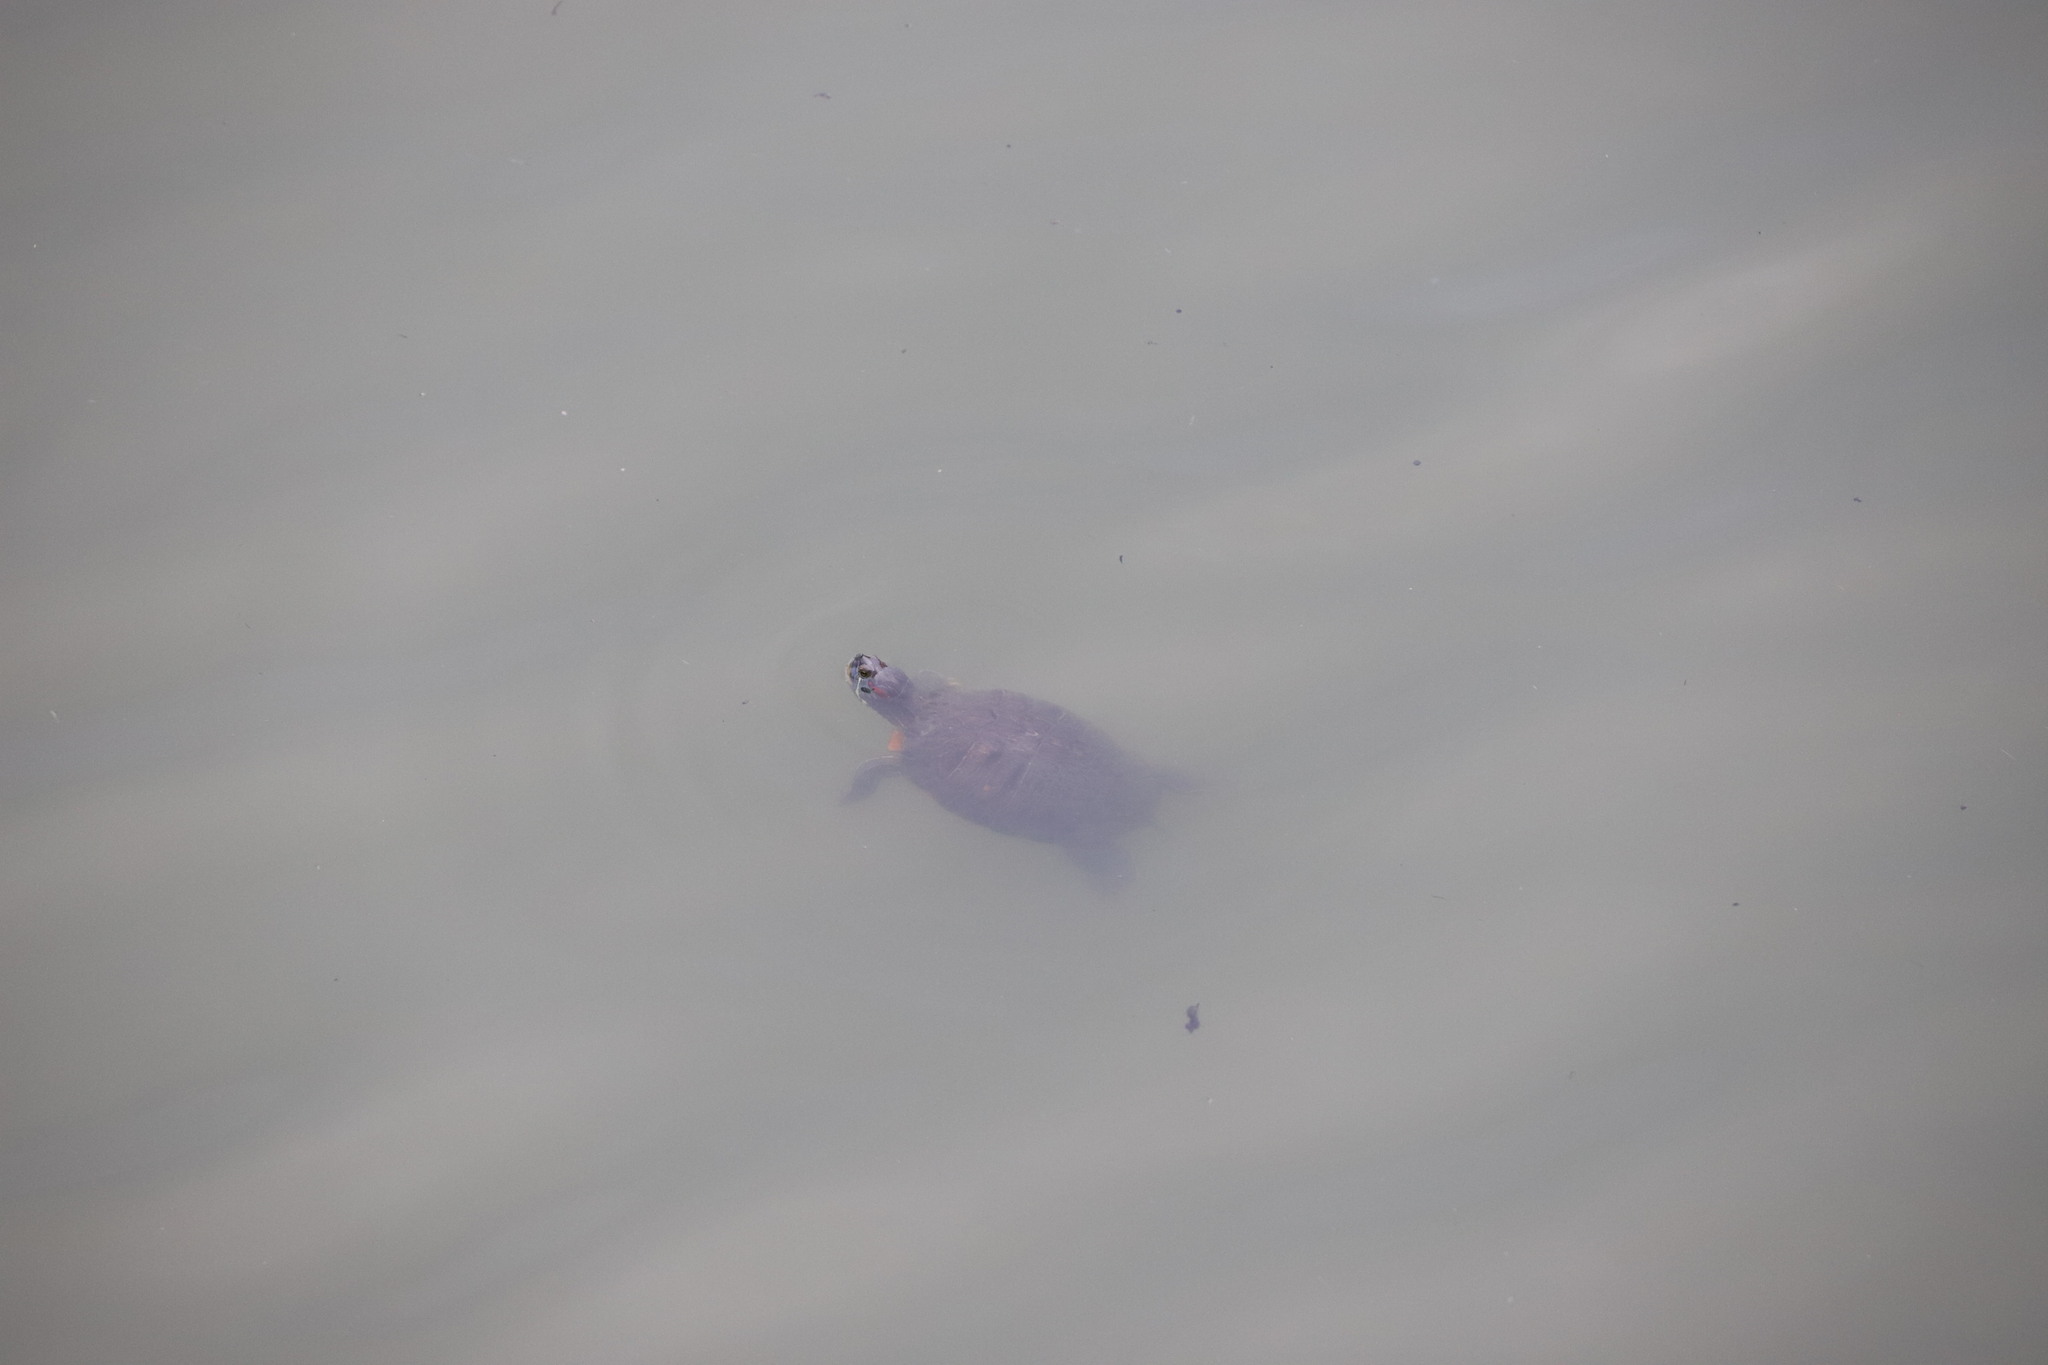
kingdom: Animalia
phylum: Chordata
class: Testudines
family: Emydidae
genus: Trachemys
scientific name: Trachemys scripta
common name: Slider
